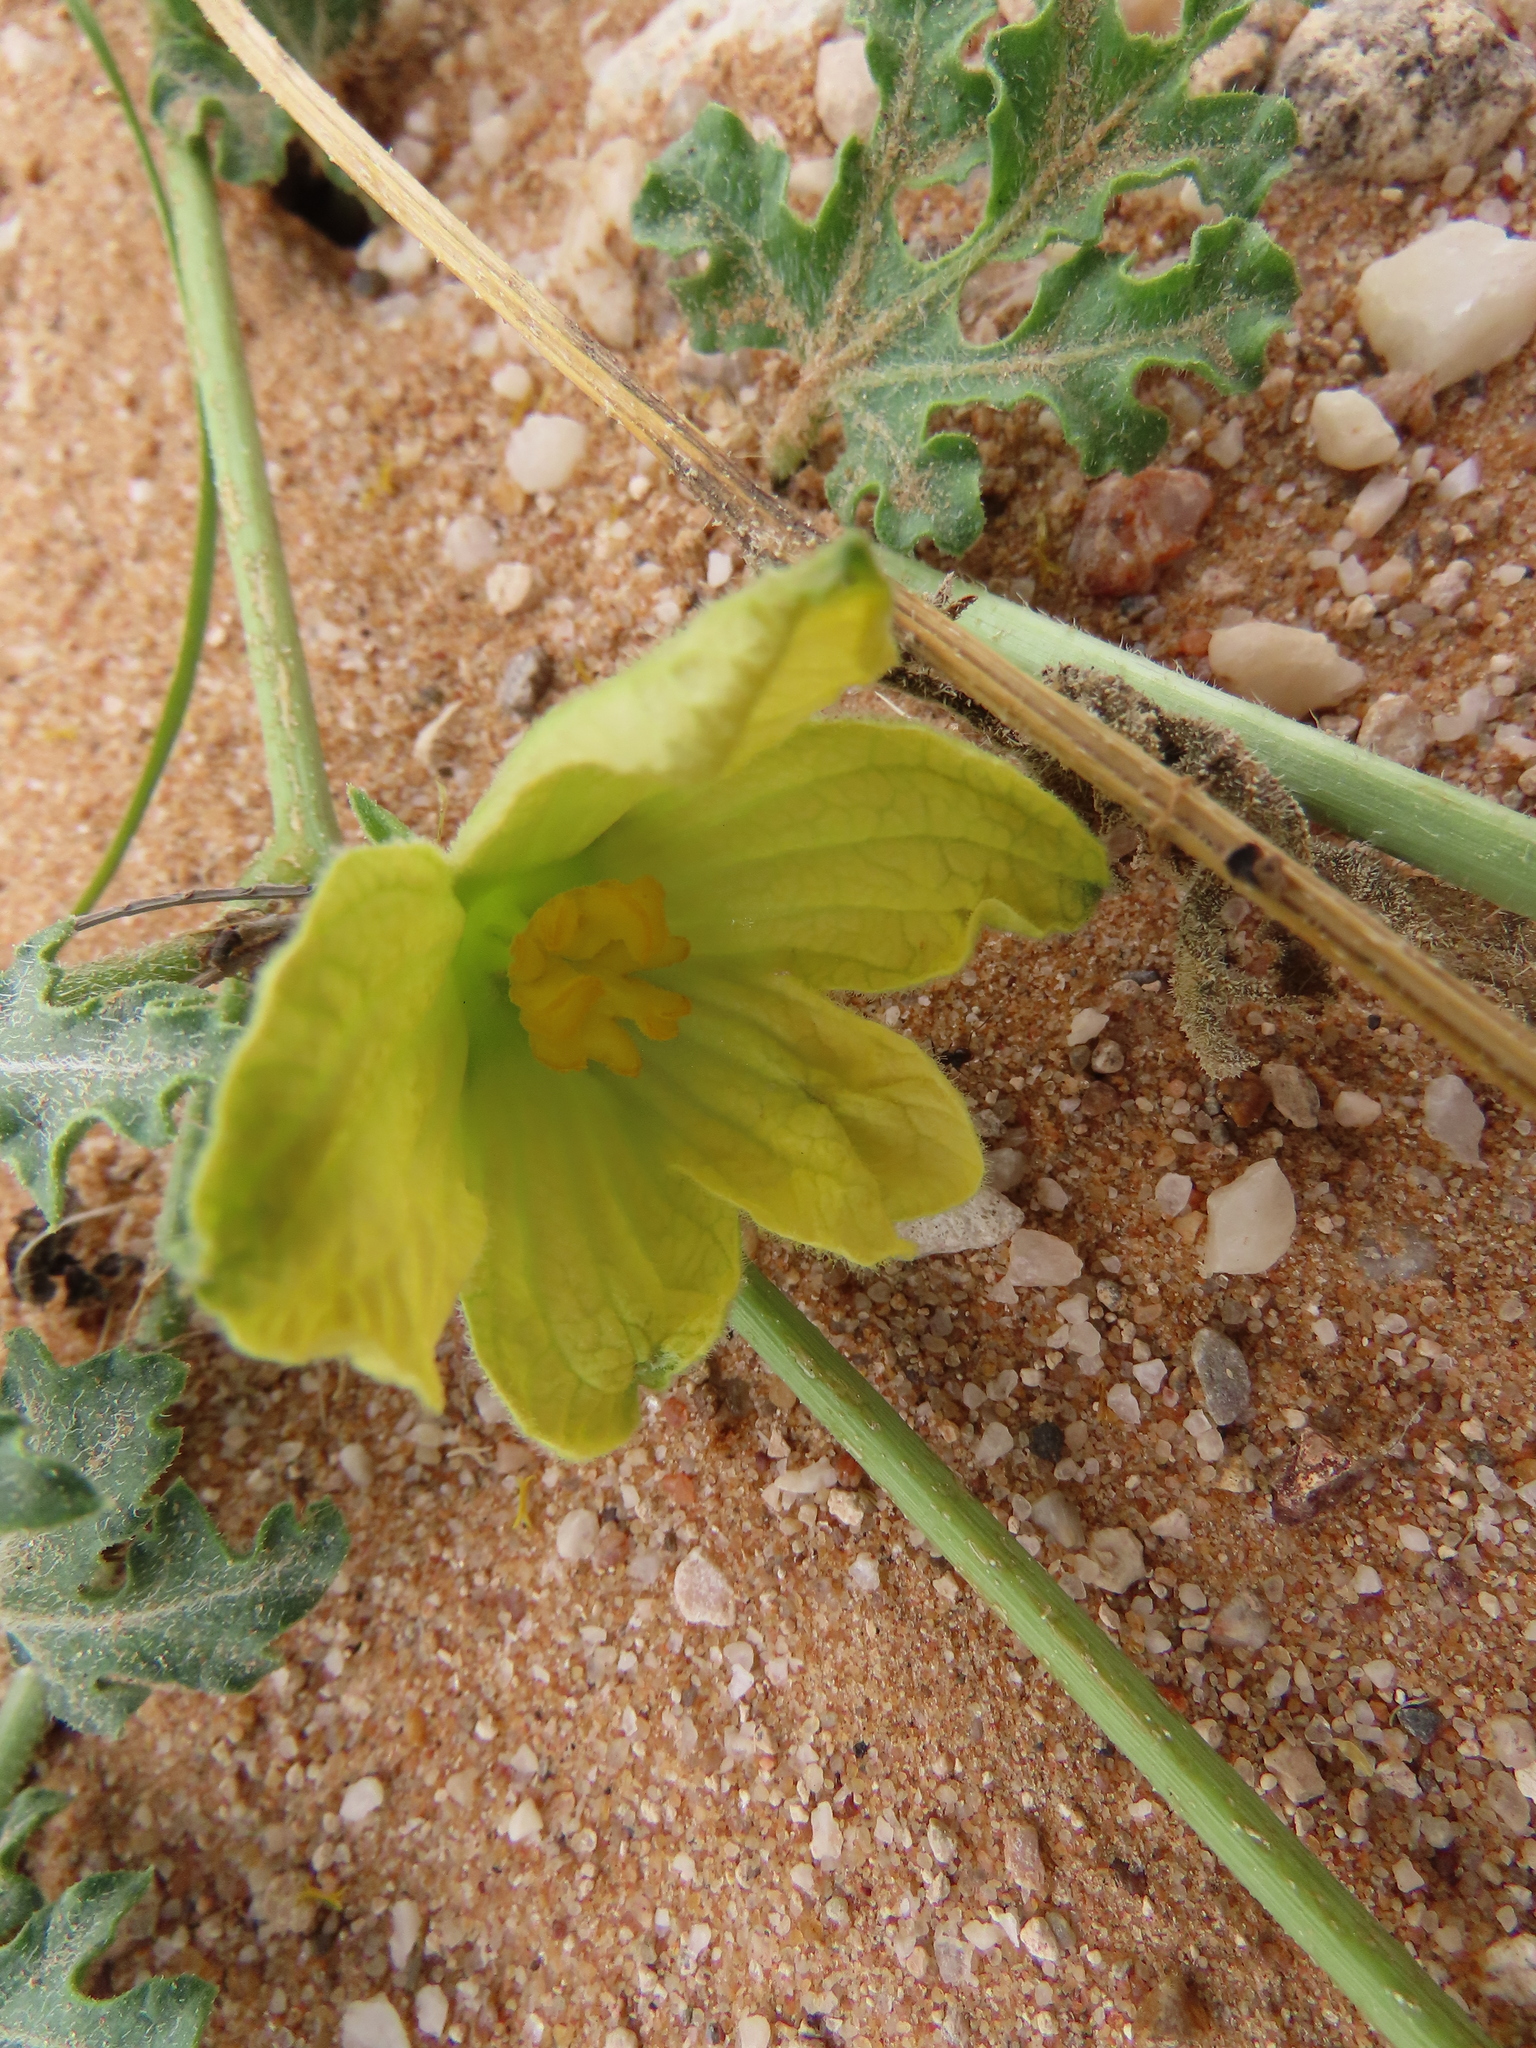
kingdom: Plantae
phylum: Tracheophyta
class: Magnoliopsida
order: Cucurbitales
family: Cucurbitaceae
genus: Citrullus
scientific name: Citrullus naudinianus
